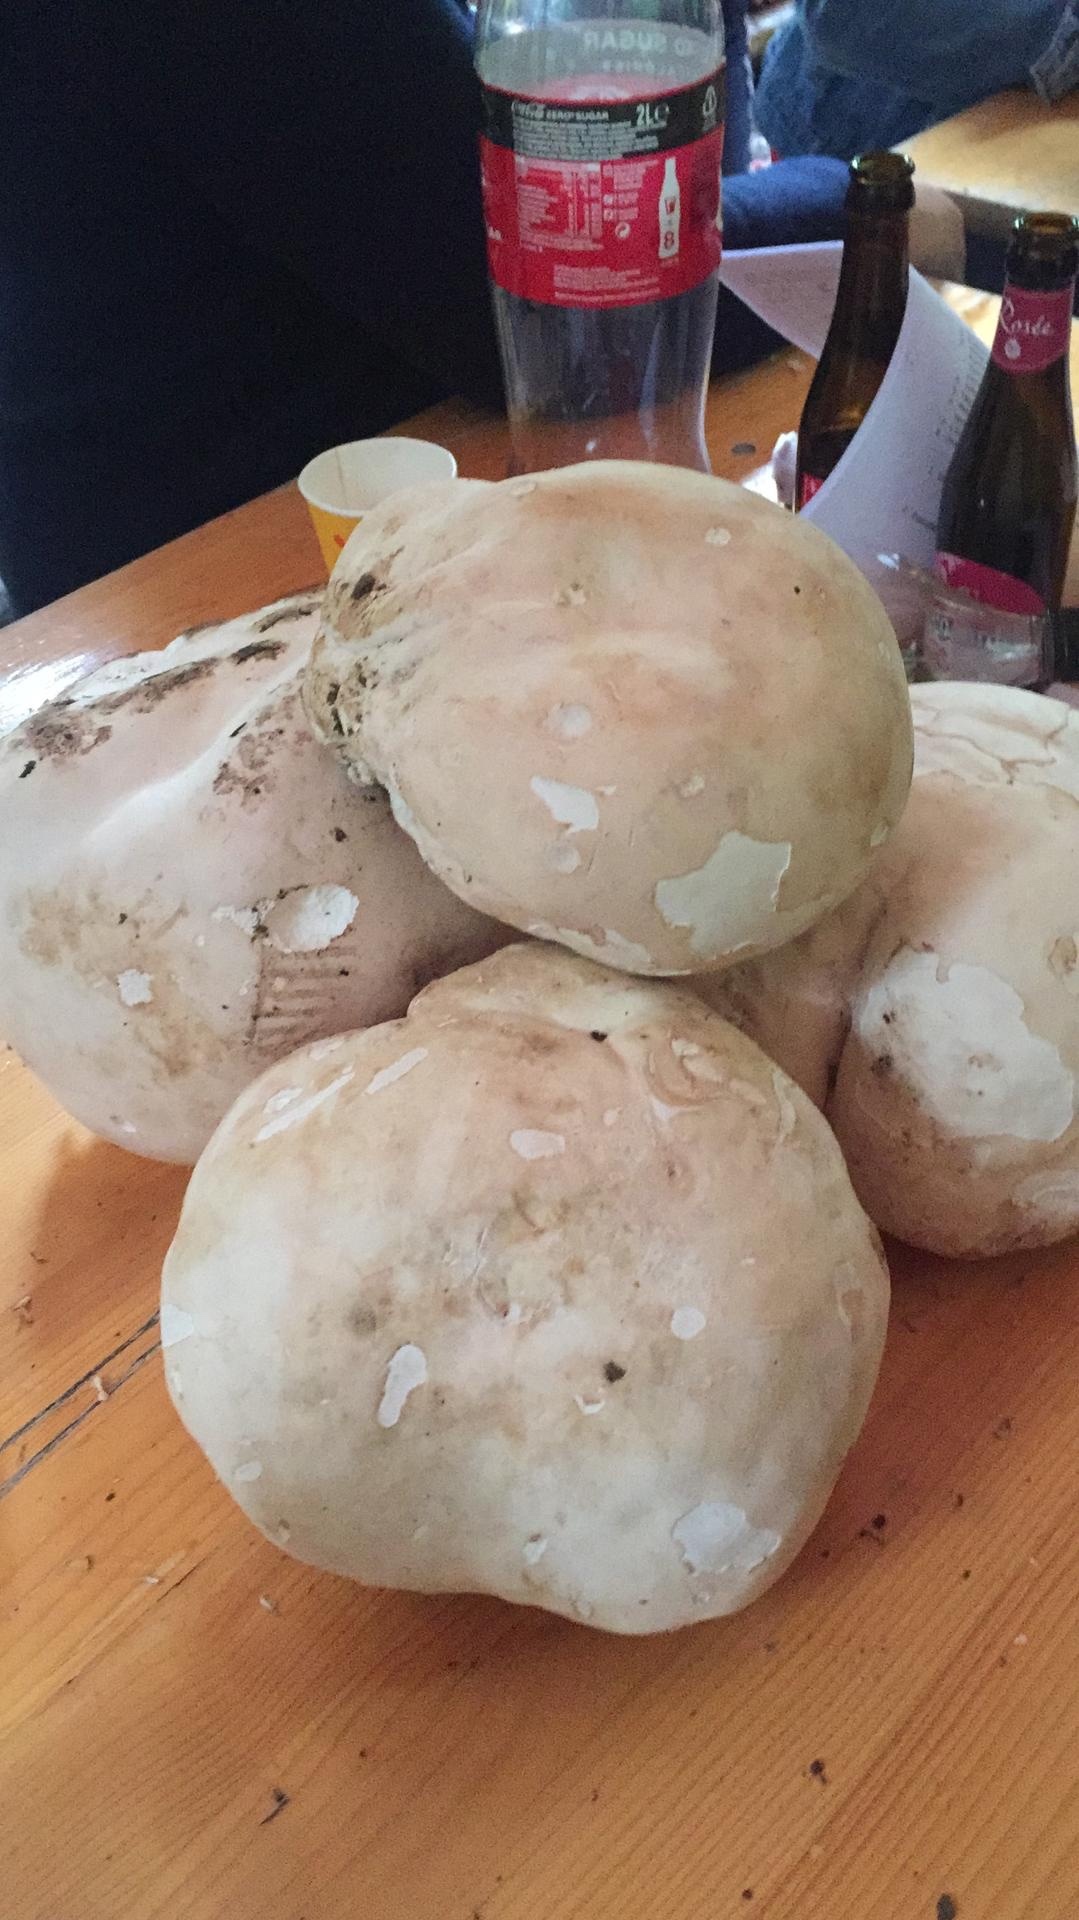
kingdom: Fungi
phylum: Basidiomycota
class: Agaricomycetes
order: Agaricales
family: Lycoperdaceae
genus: Calvatia
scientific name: Calvatia gigantea
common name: Giant puffball
